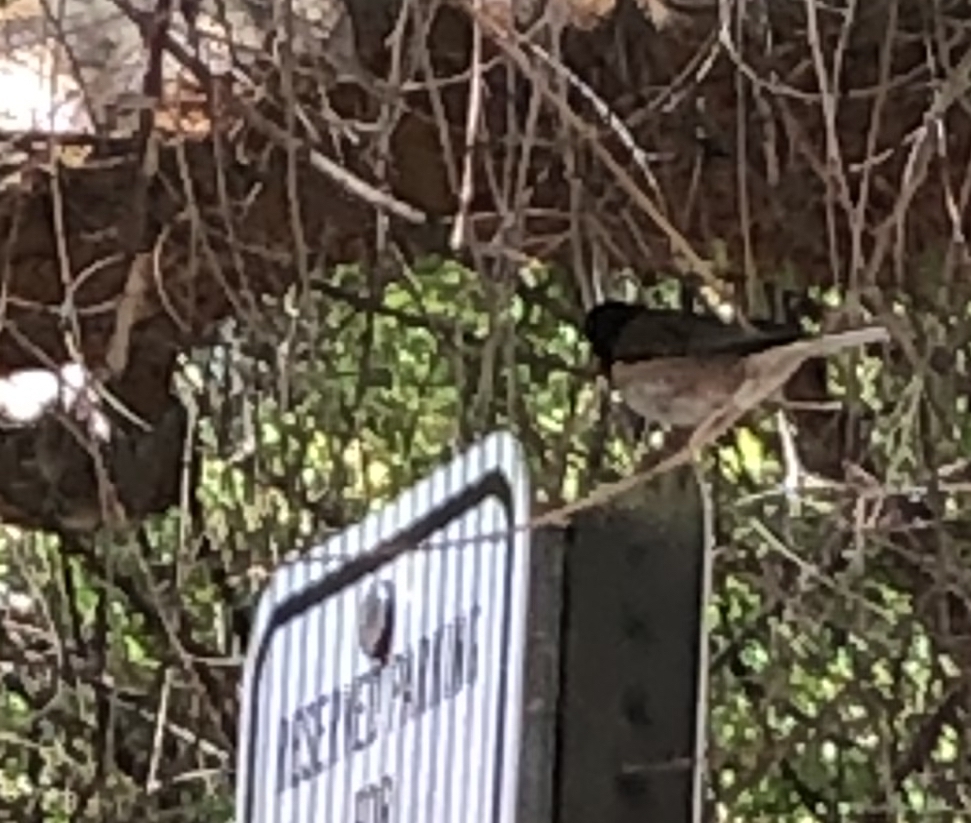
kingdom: Animalia
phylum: Chordata
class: Aves
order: Passeriformes
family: Passerellidae
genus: Junco
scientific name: Junco hyemalis
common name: Dark-eyed junco
